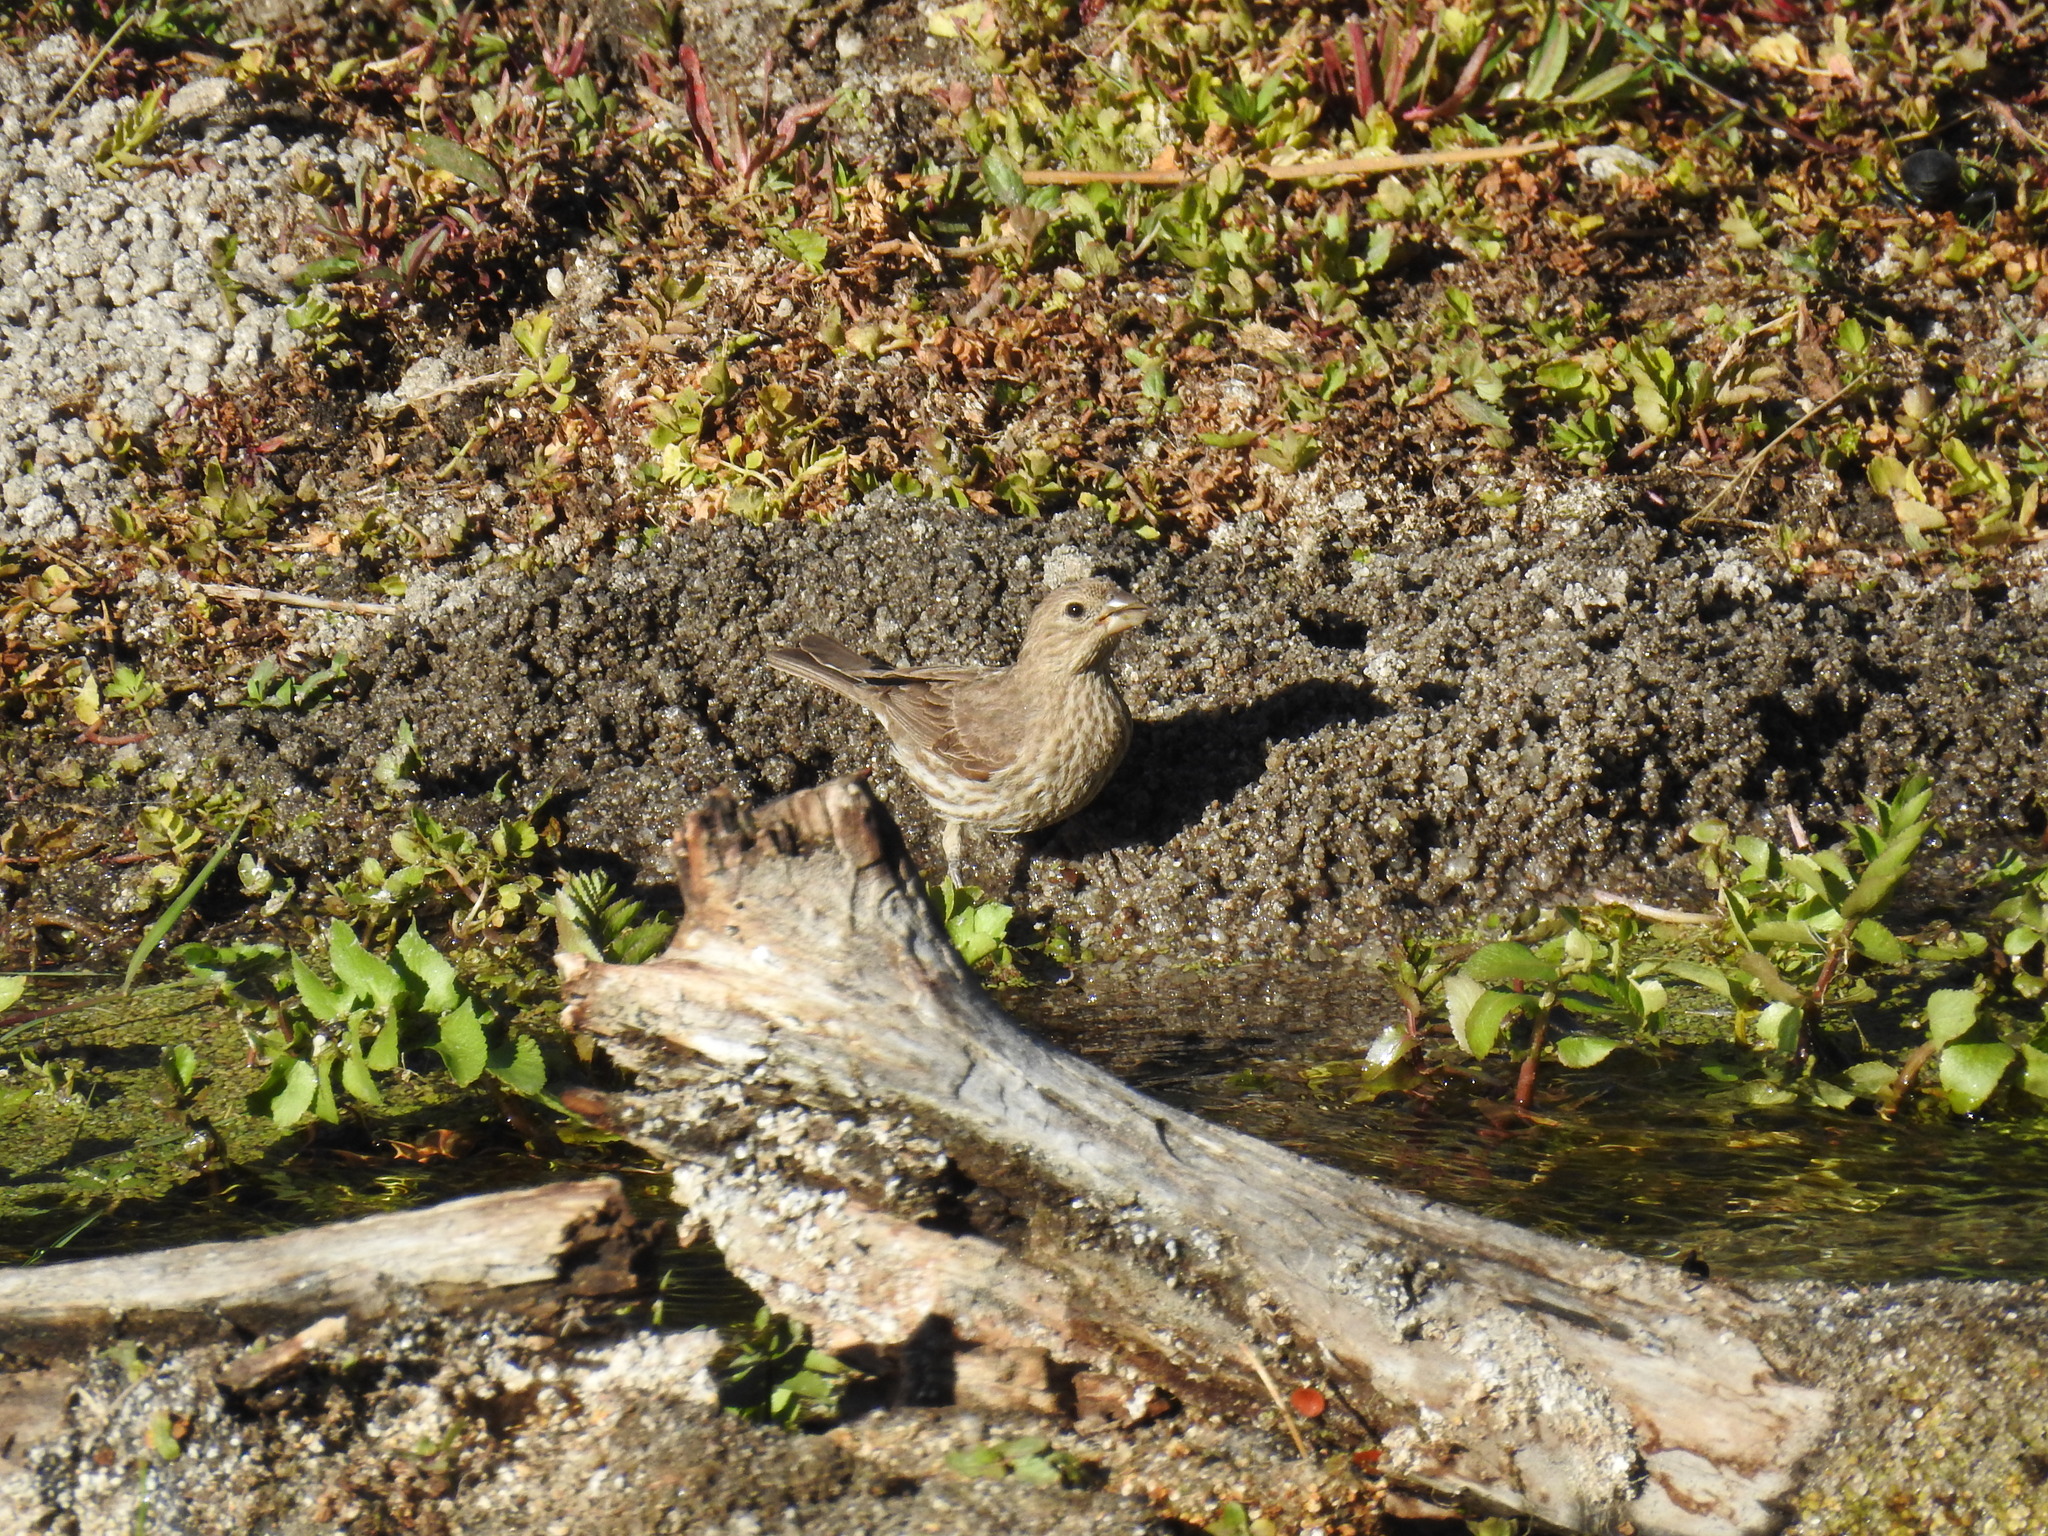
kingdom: Animalia
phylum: Chordata
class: Aves
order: Passeriformes
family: Fringillidae
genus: Haemorhous
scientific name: Haemorhous mexicanus
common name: House finch
